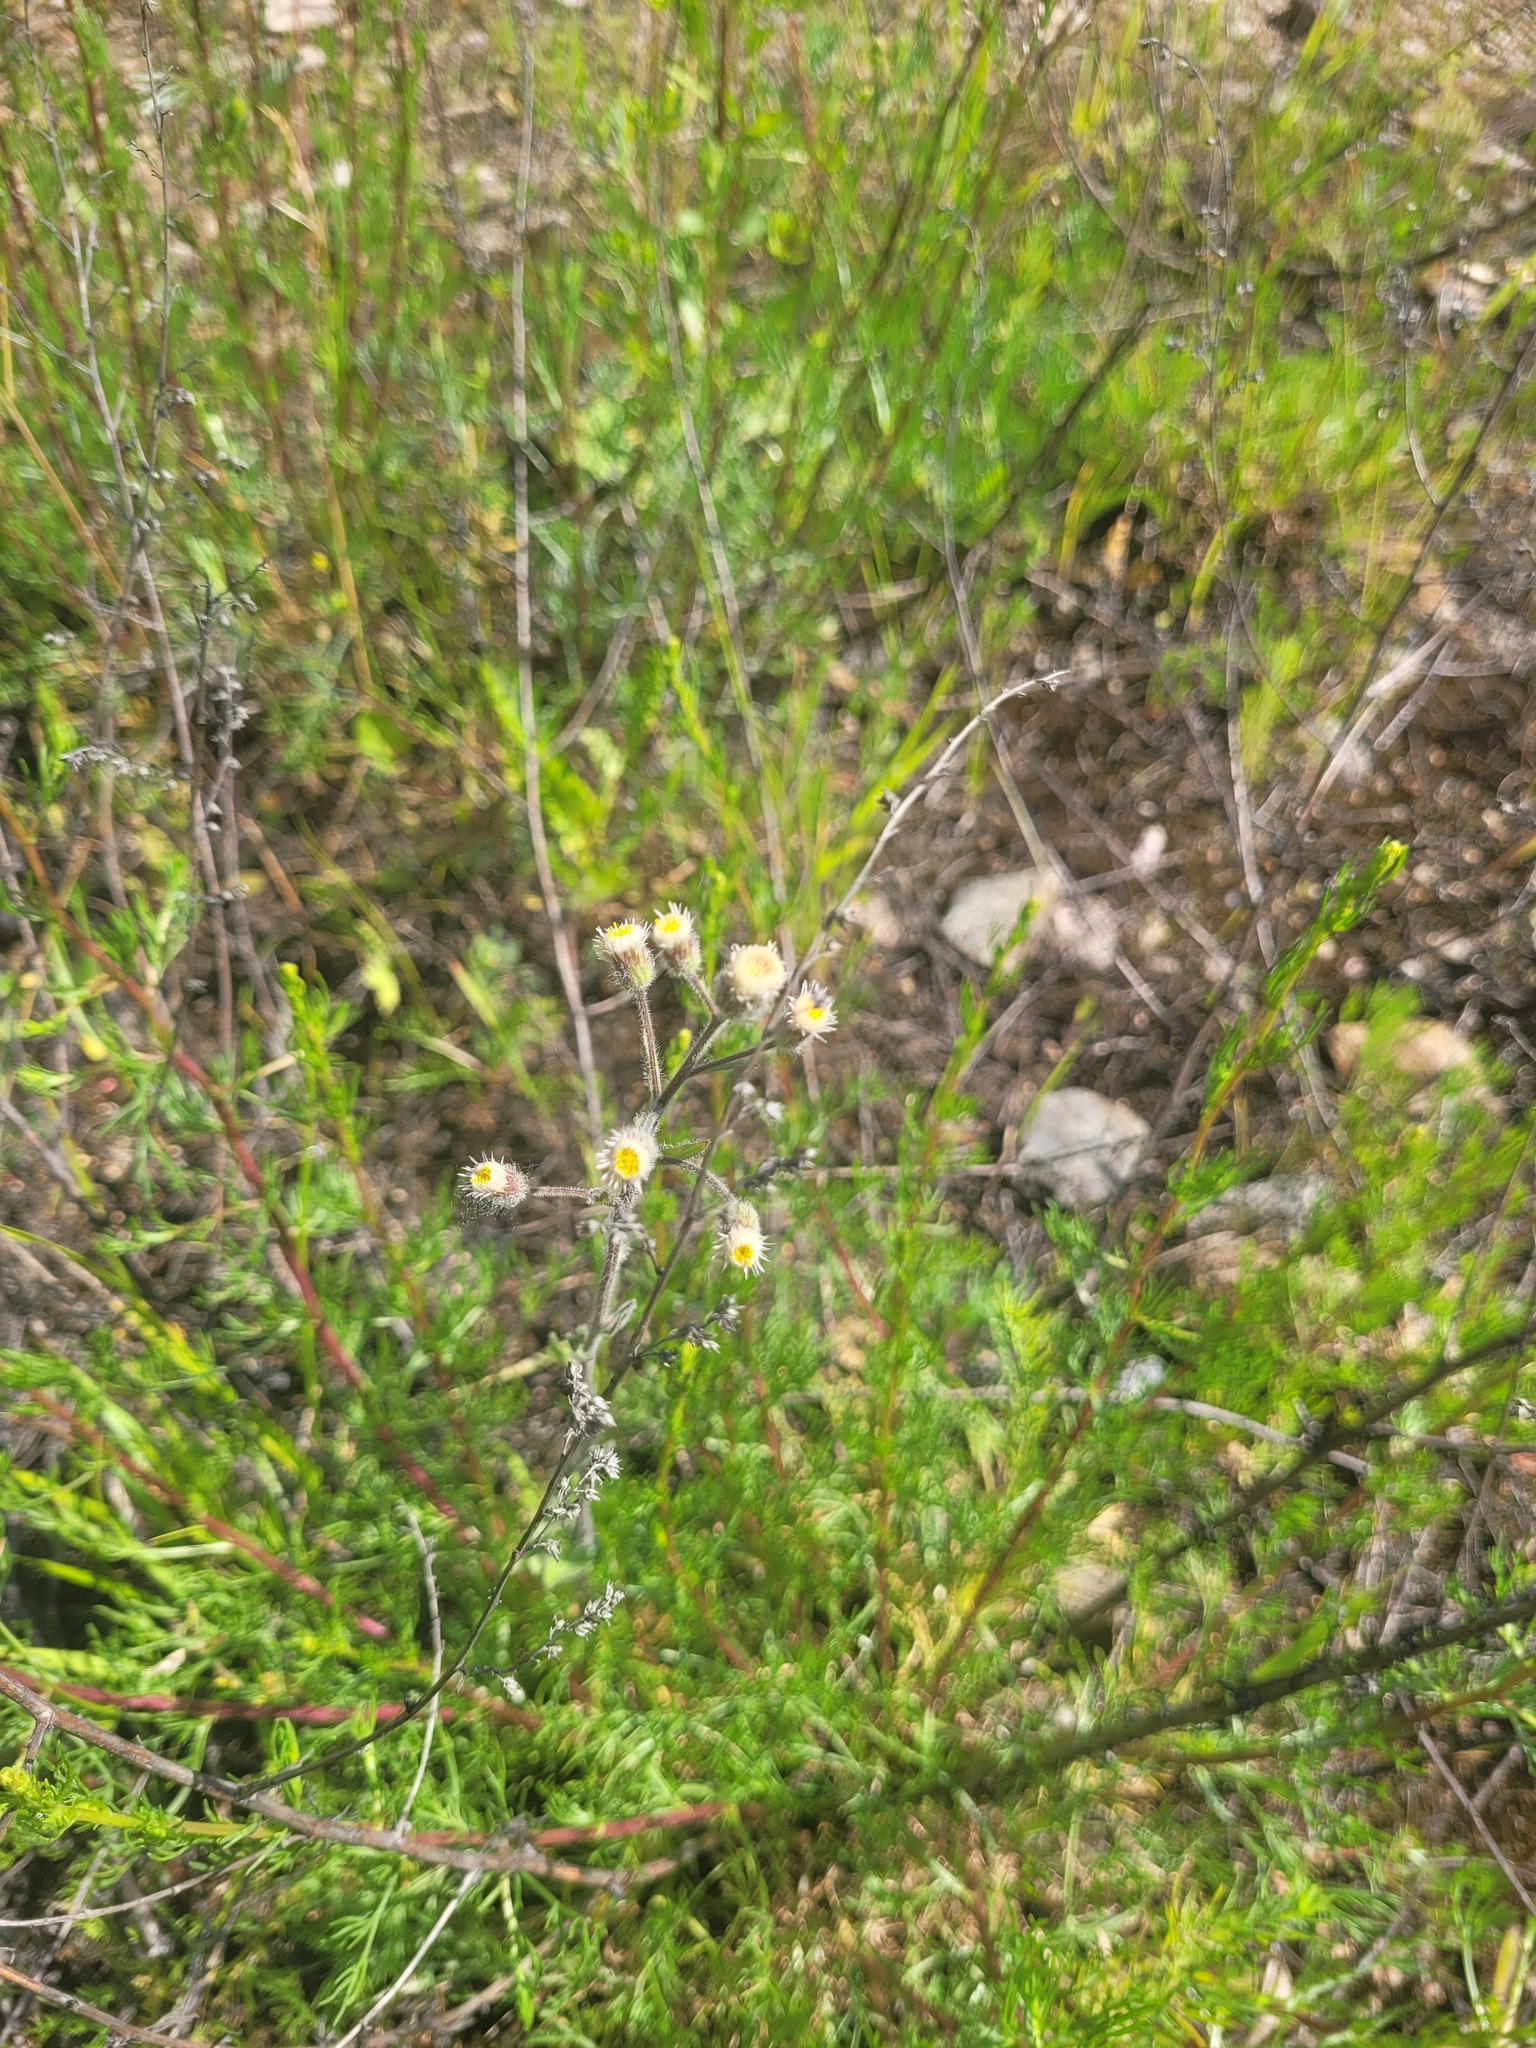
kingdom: Plantae
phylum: Tracheophyta
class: Magnoliopsida
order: Asterales
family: Asteraceae
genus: Erigeron
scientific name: Erigeron acris
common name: Blue fleabane
